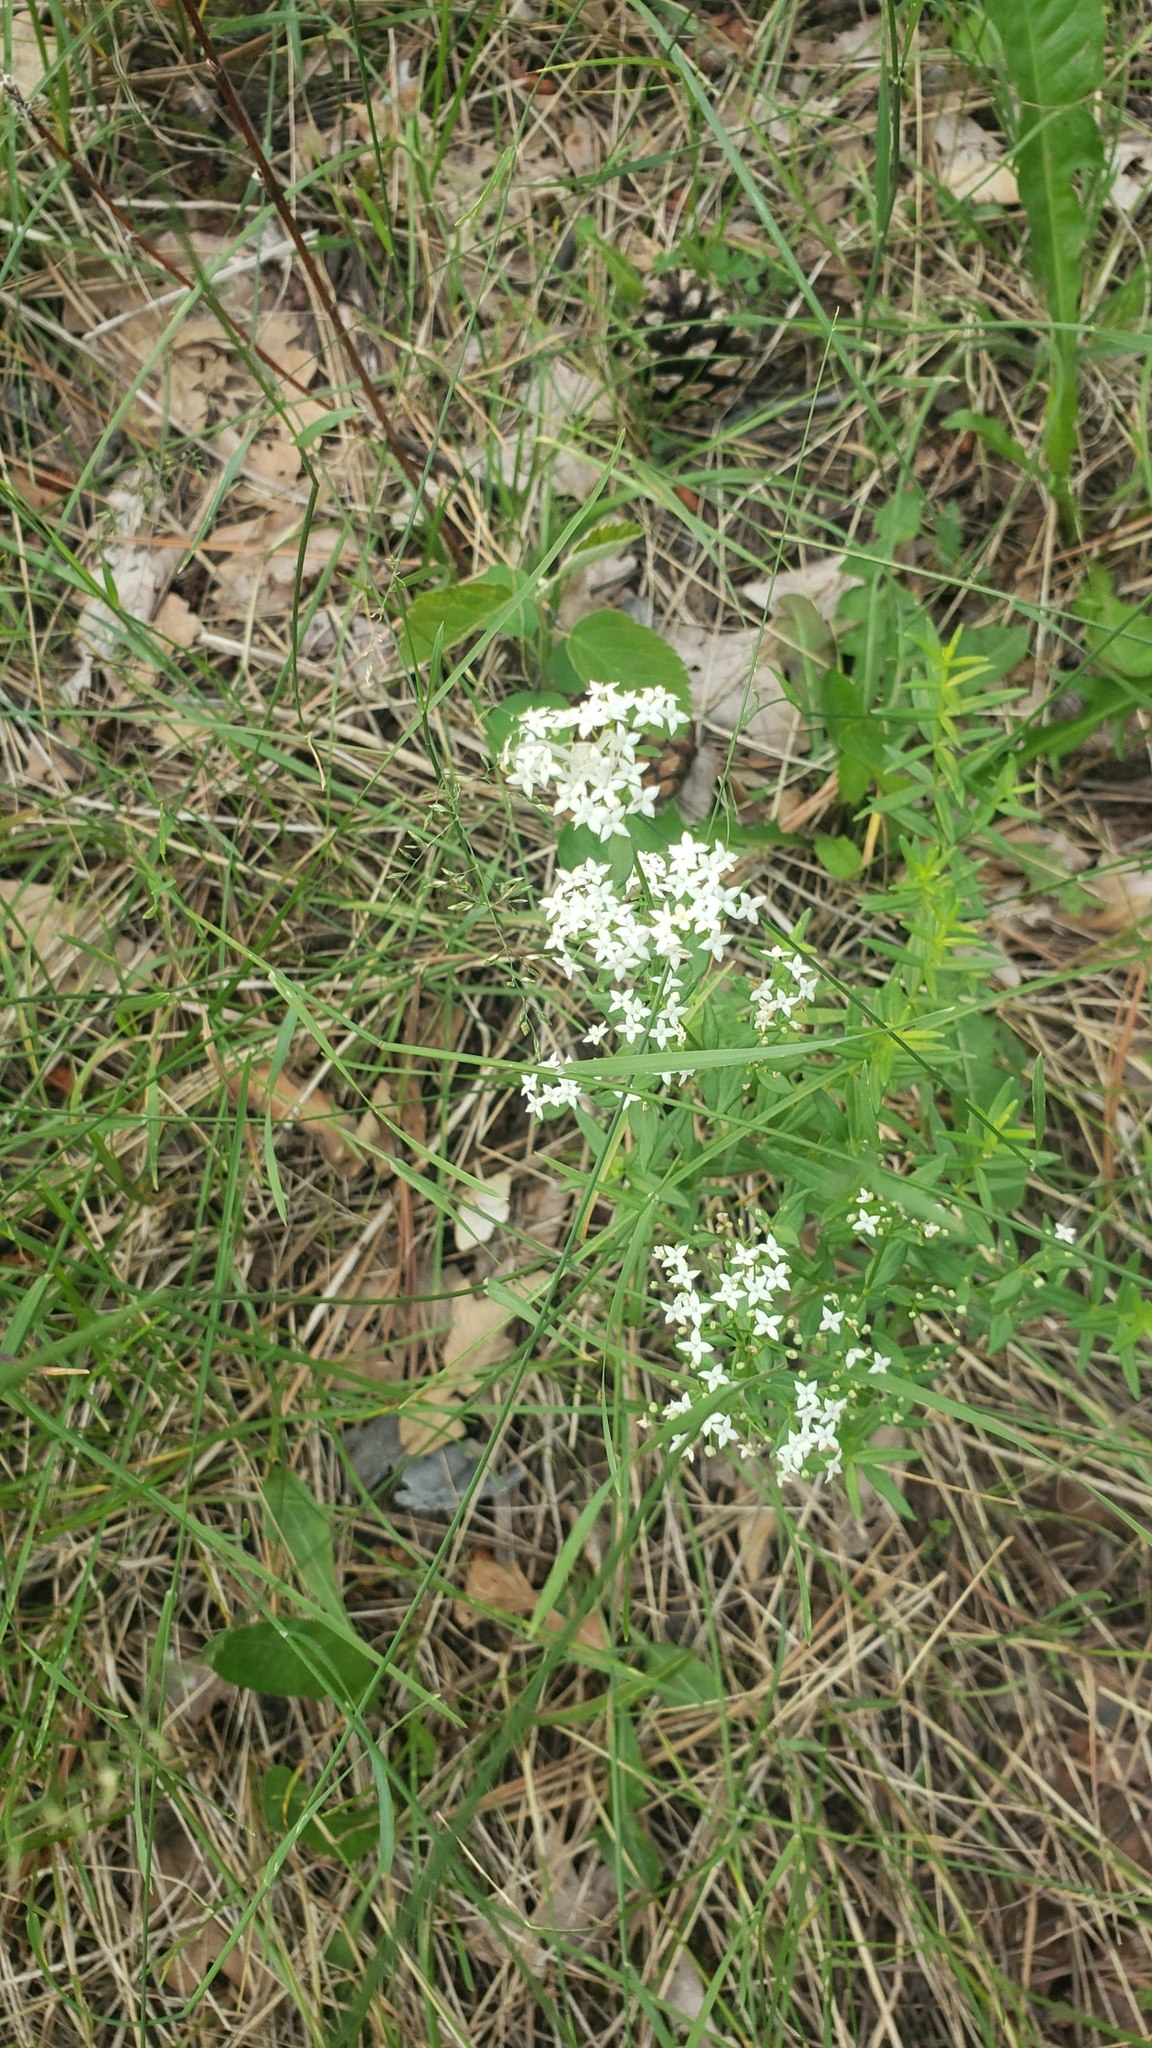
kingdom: Plantae
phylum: Tracheophyta
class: Magnoliopsida
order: Gentianales
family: Rubiaceae
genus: Galium
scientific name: Galium boreale
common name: Northern bedstraw
